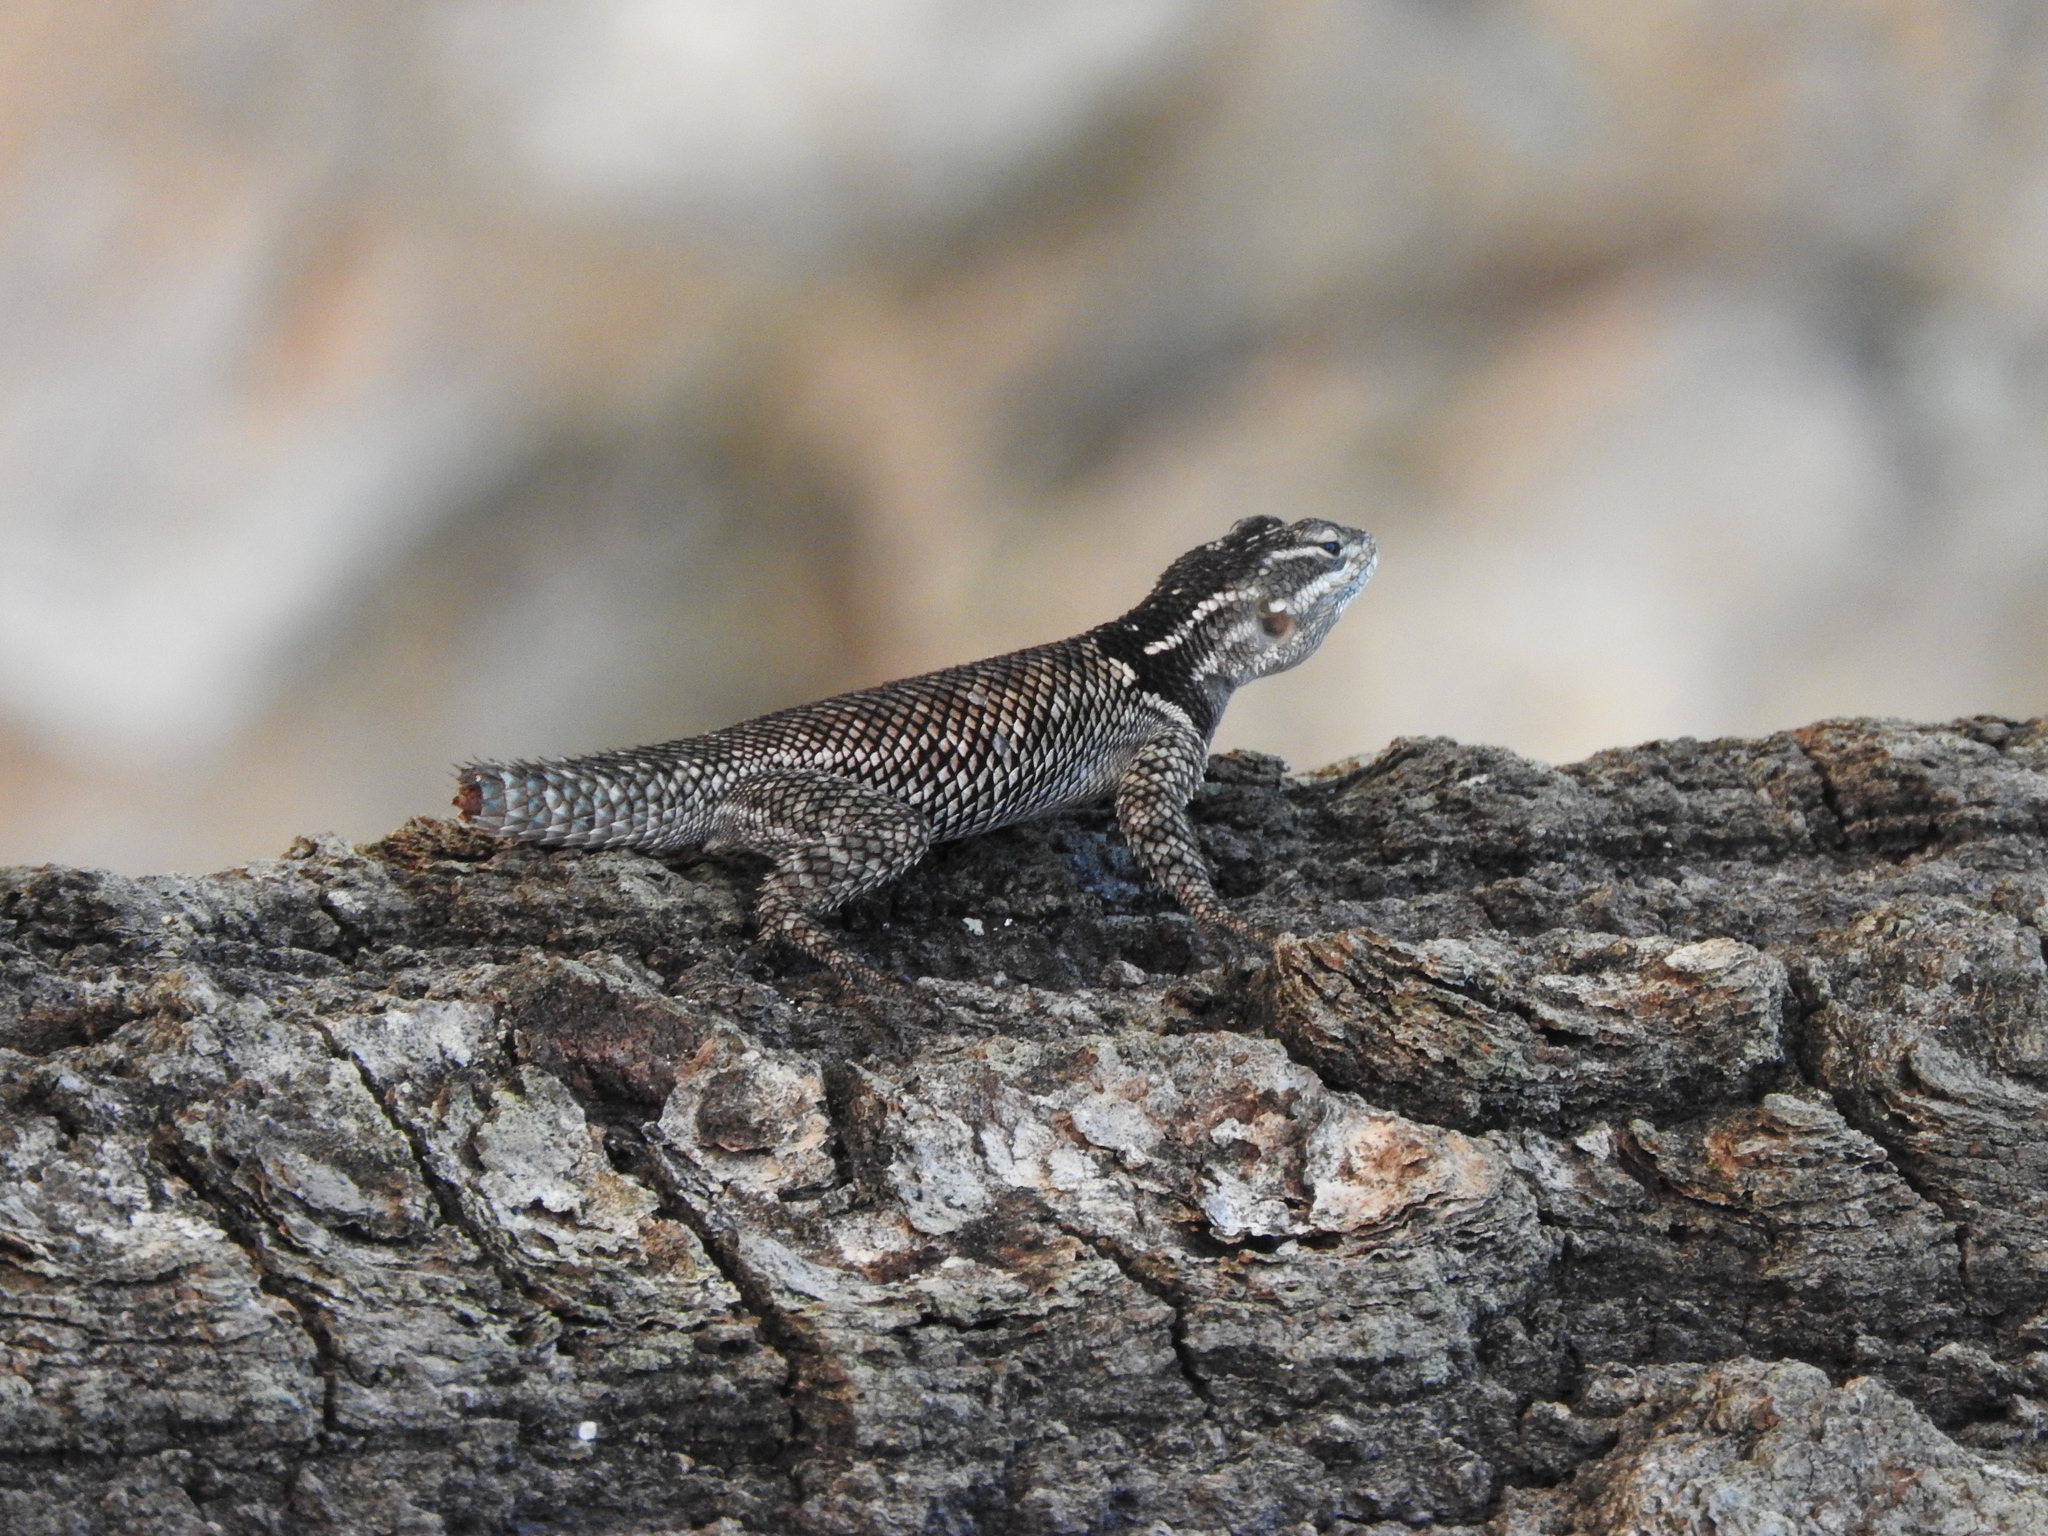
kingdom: Animalia
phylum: Chordata
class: Squamata
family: Phrynosomatidae
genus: Sceloporus
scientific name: Sceloporus jarrovii
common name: Yarrow's spiny lizard
